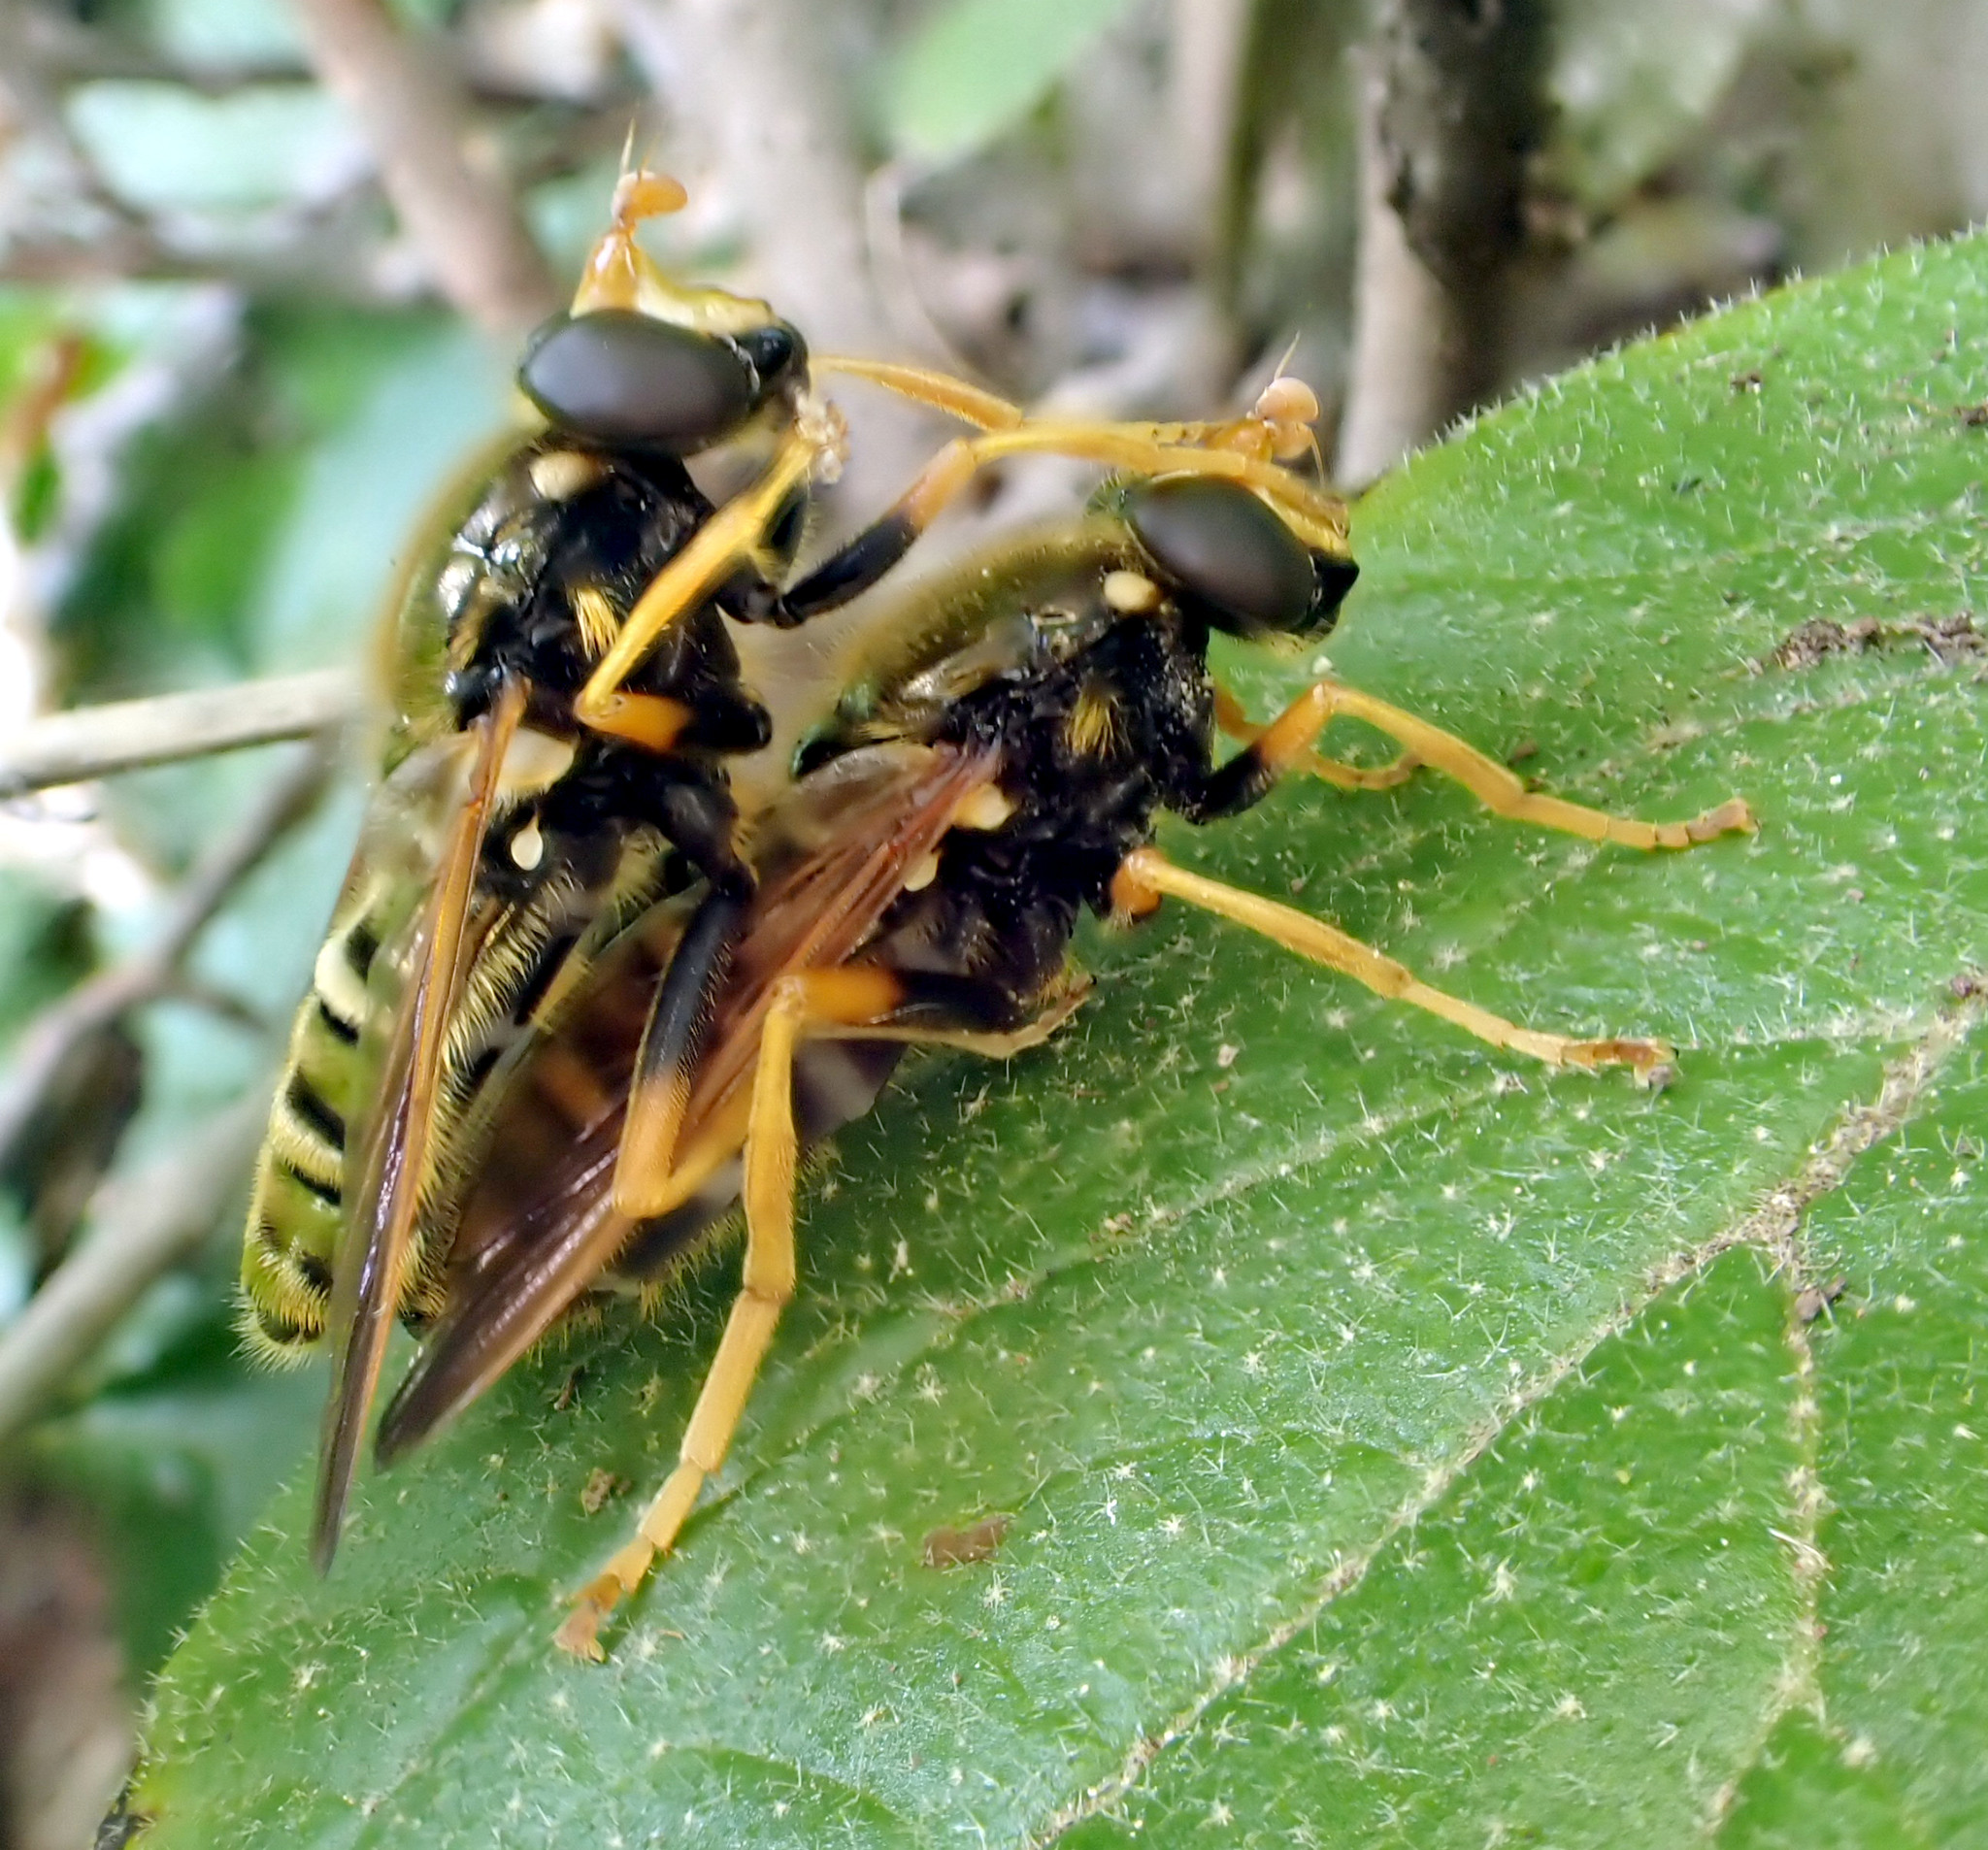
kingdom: Animalia
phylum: Arthropoda
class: Insecta
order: Diptera
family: Syrphidae
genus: Caliprobola
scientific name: Caliprobola speciosa
